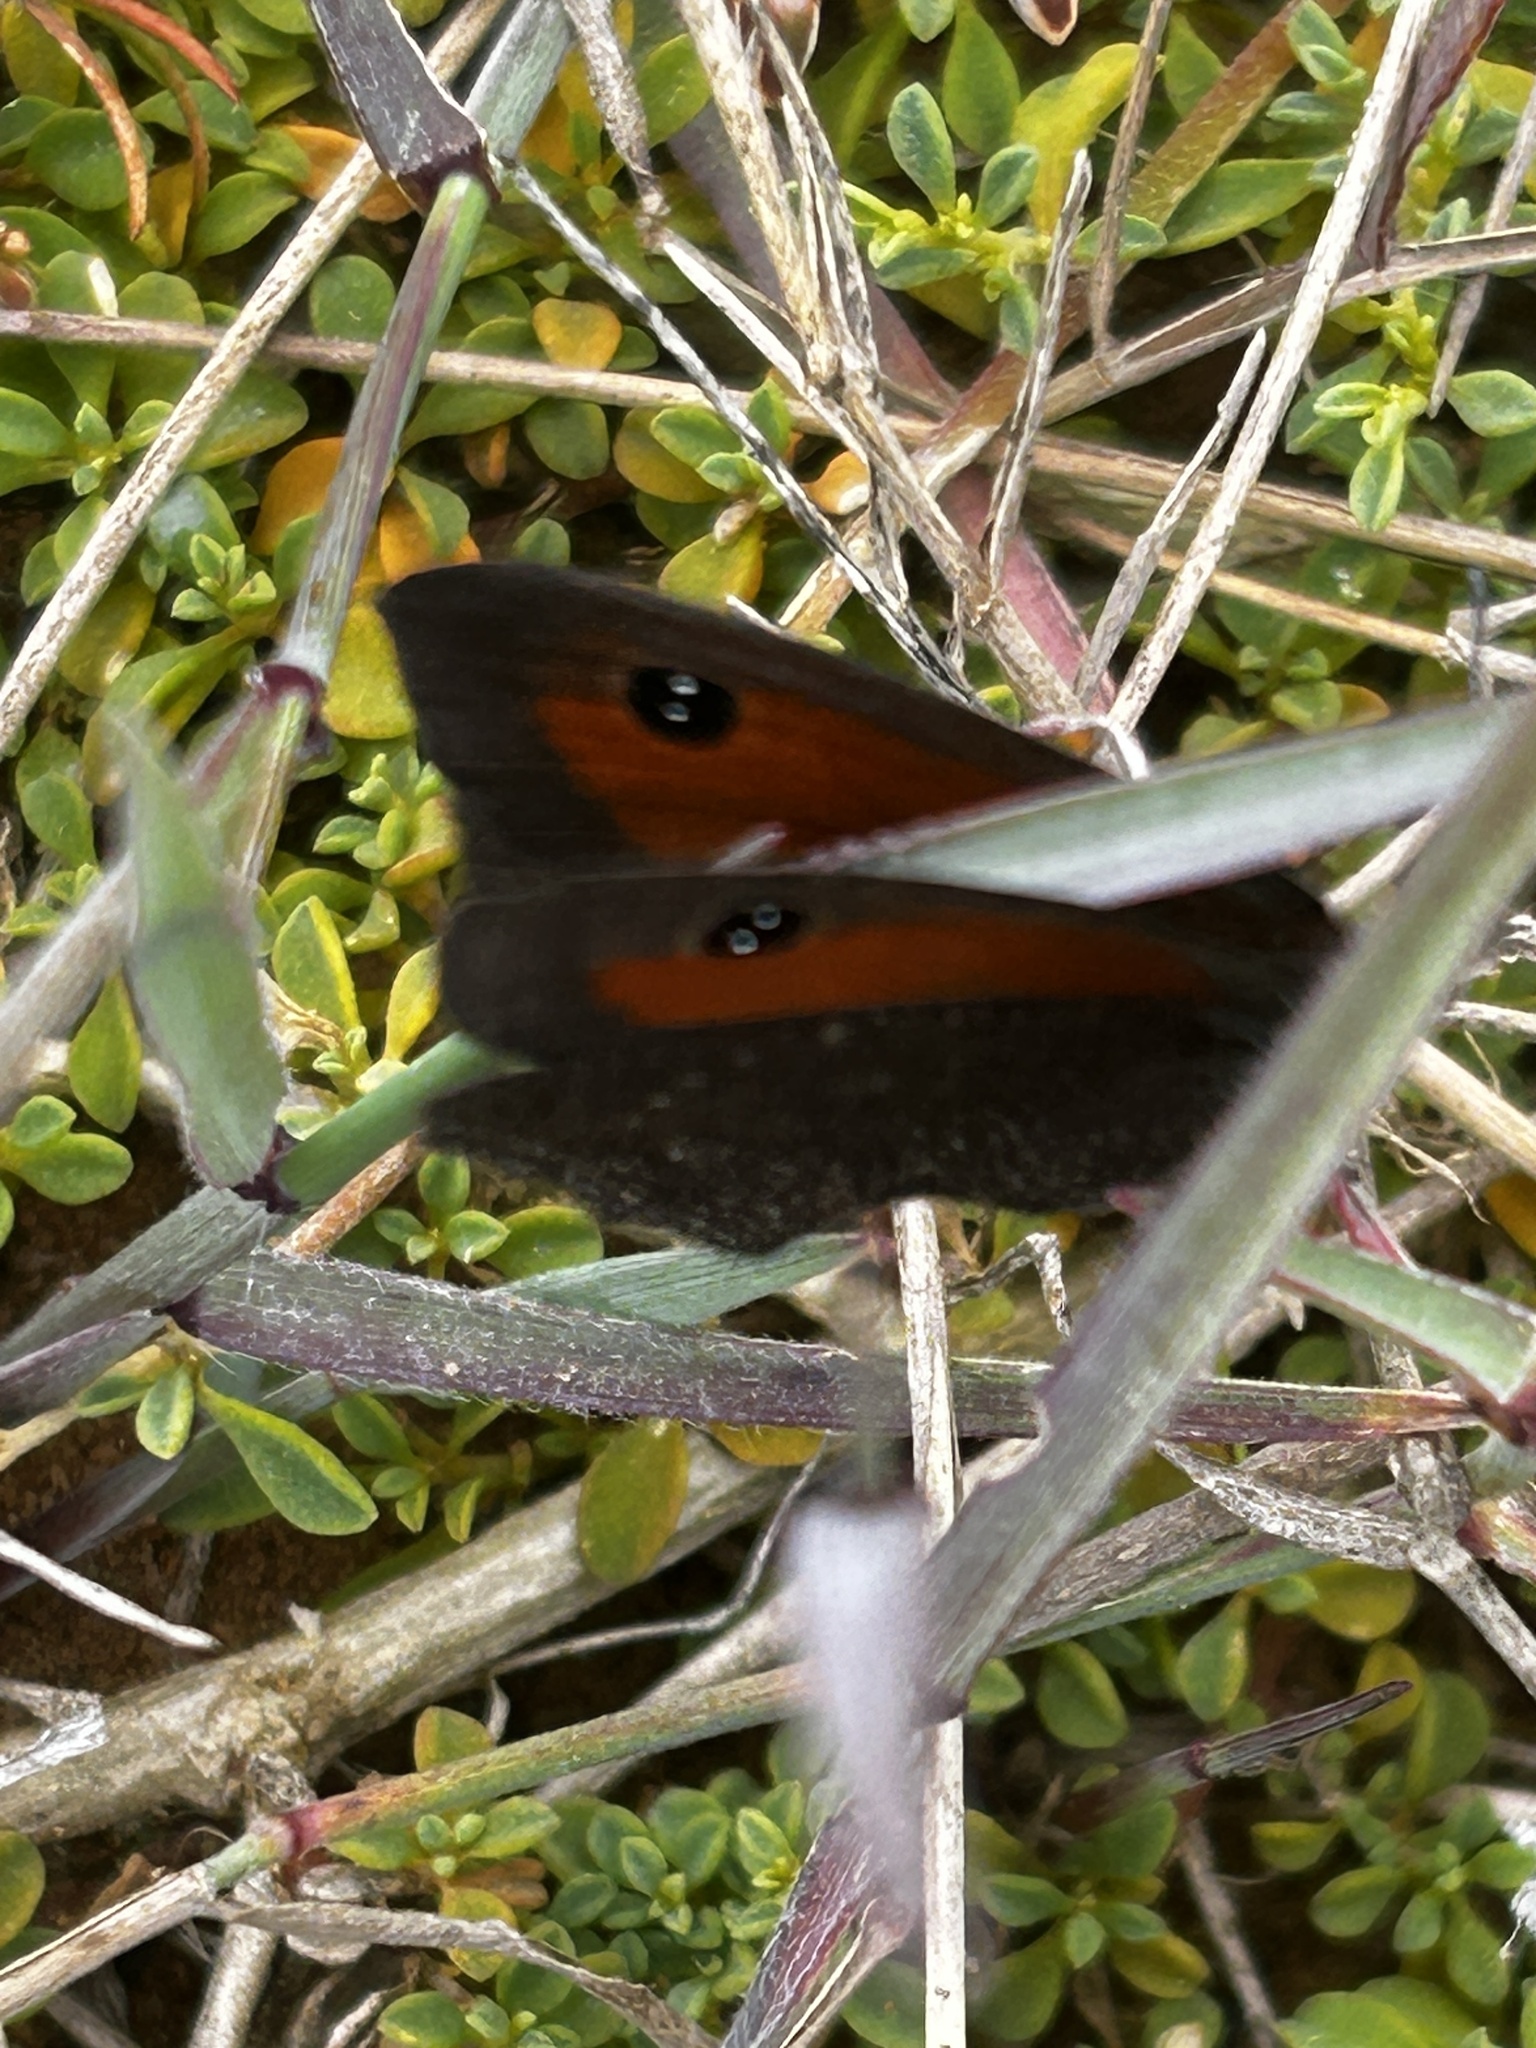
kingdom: Animalia
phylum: Arthropoda
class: Insecta
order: Lepidoptera
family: Nymphalidae
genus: Erebia
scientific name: Erebia
